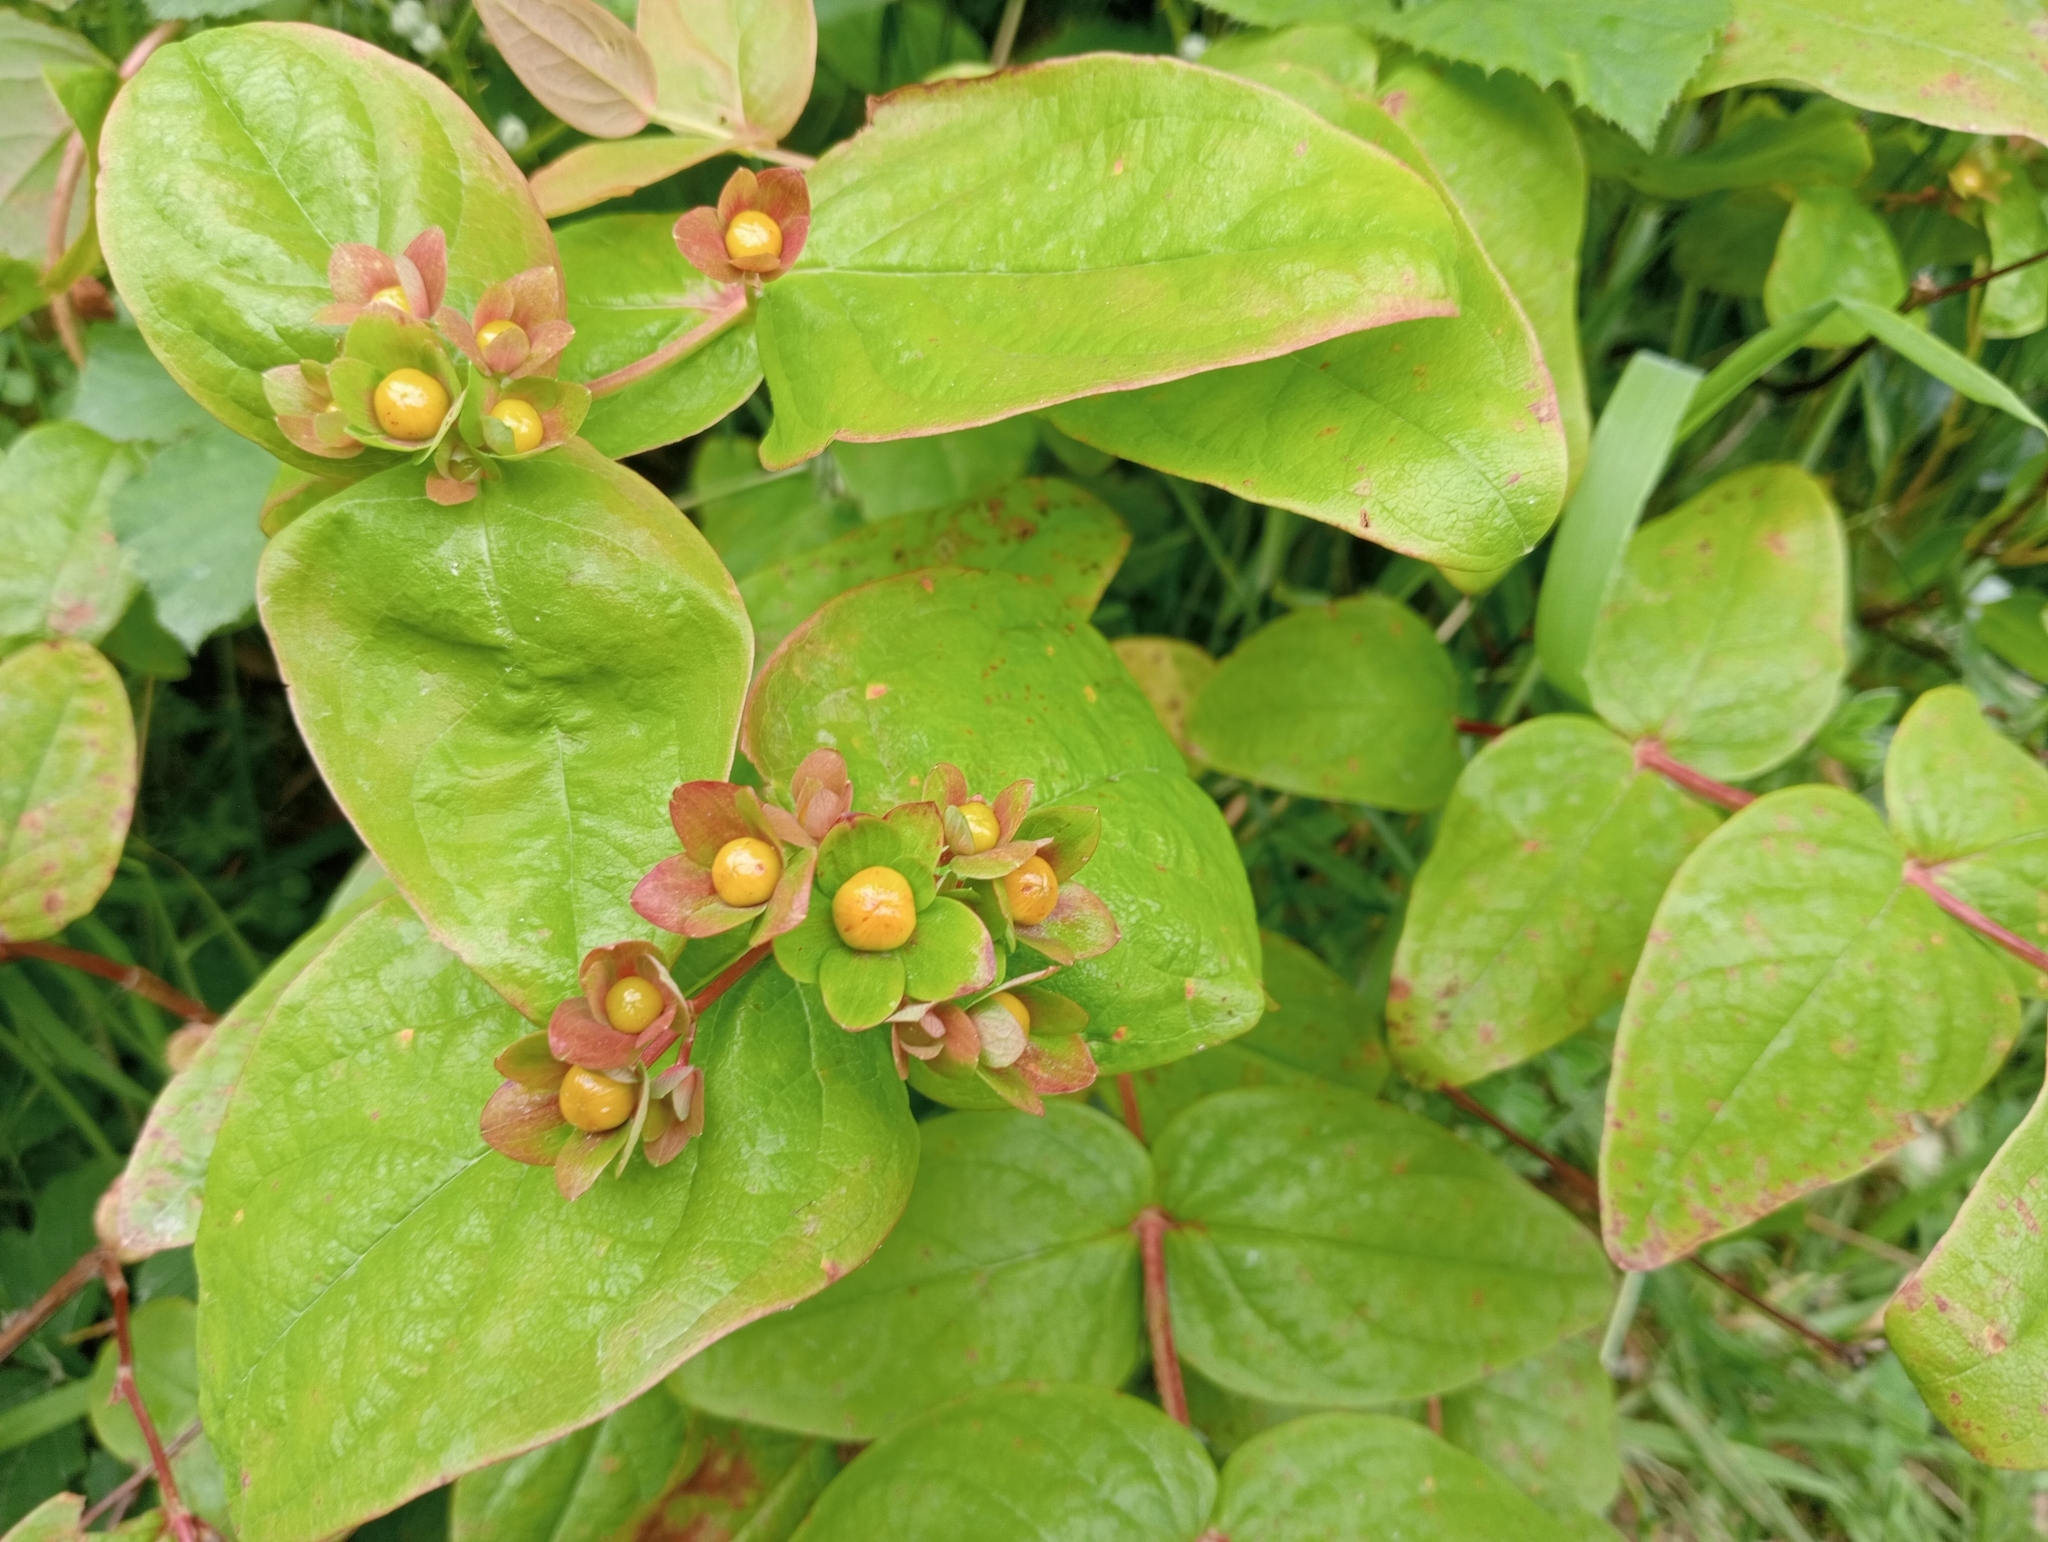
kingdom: Plantae
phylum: Tracheophyta
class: Magnoliopsida
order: Malpighiales
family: Hypericaceae
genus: Hypericum
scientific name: Hypericum androsaemum
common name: Sweet-amber
